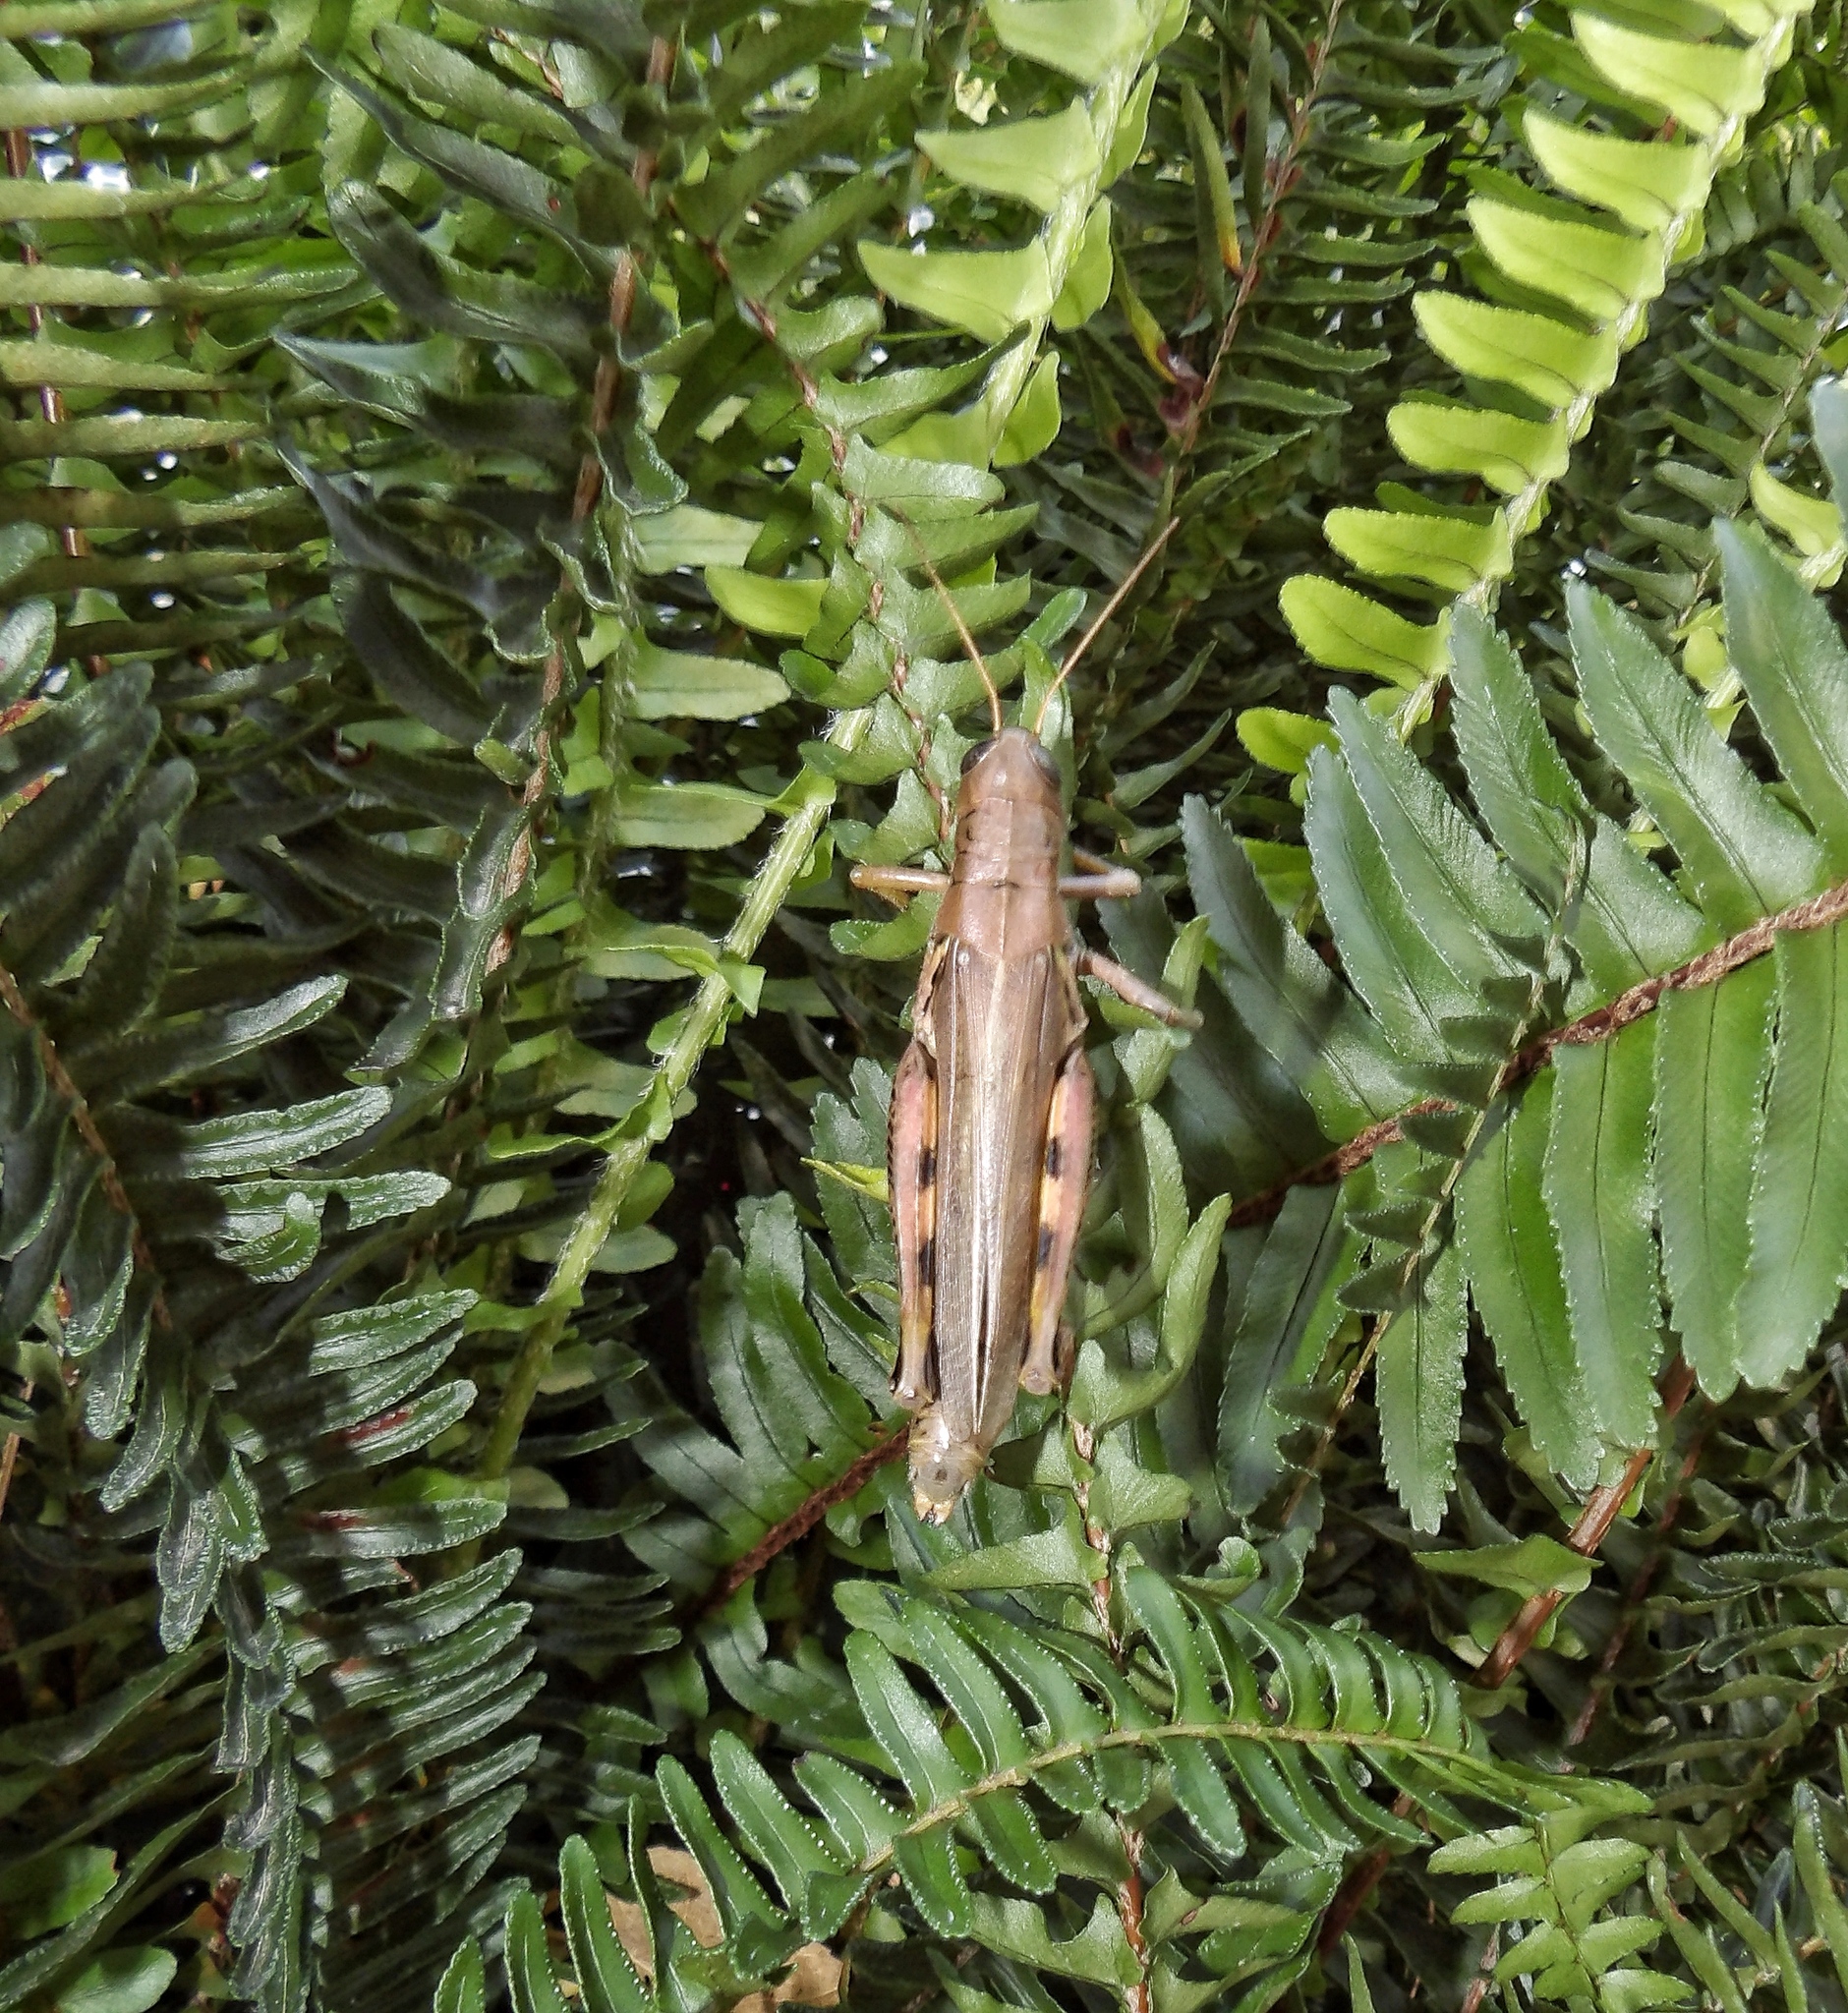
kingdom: Animalia
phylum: Arthropoda
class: Insecta
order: Orthoptera
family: Acrididae
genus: Melanoplus
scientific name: Melanoplus differentialis
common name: Differential grasshopper
